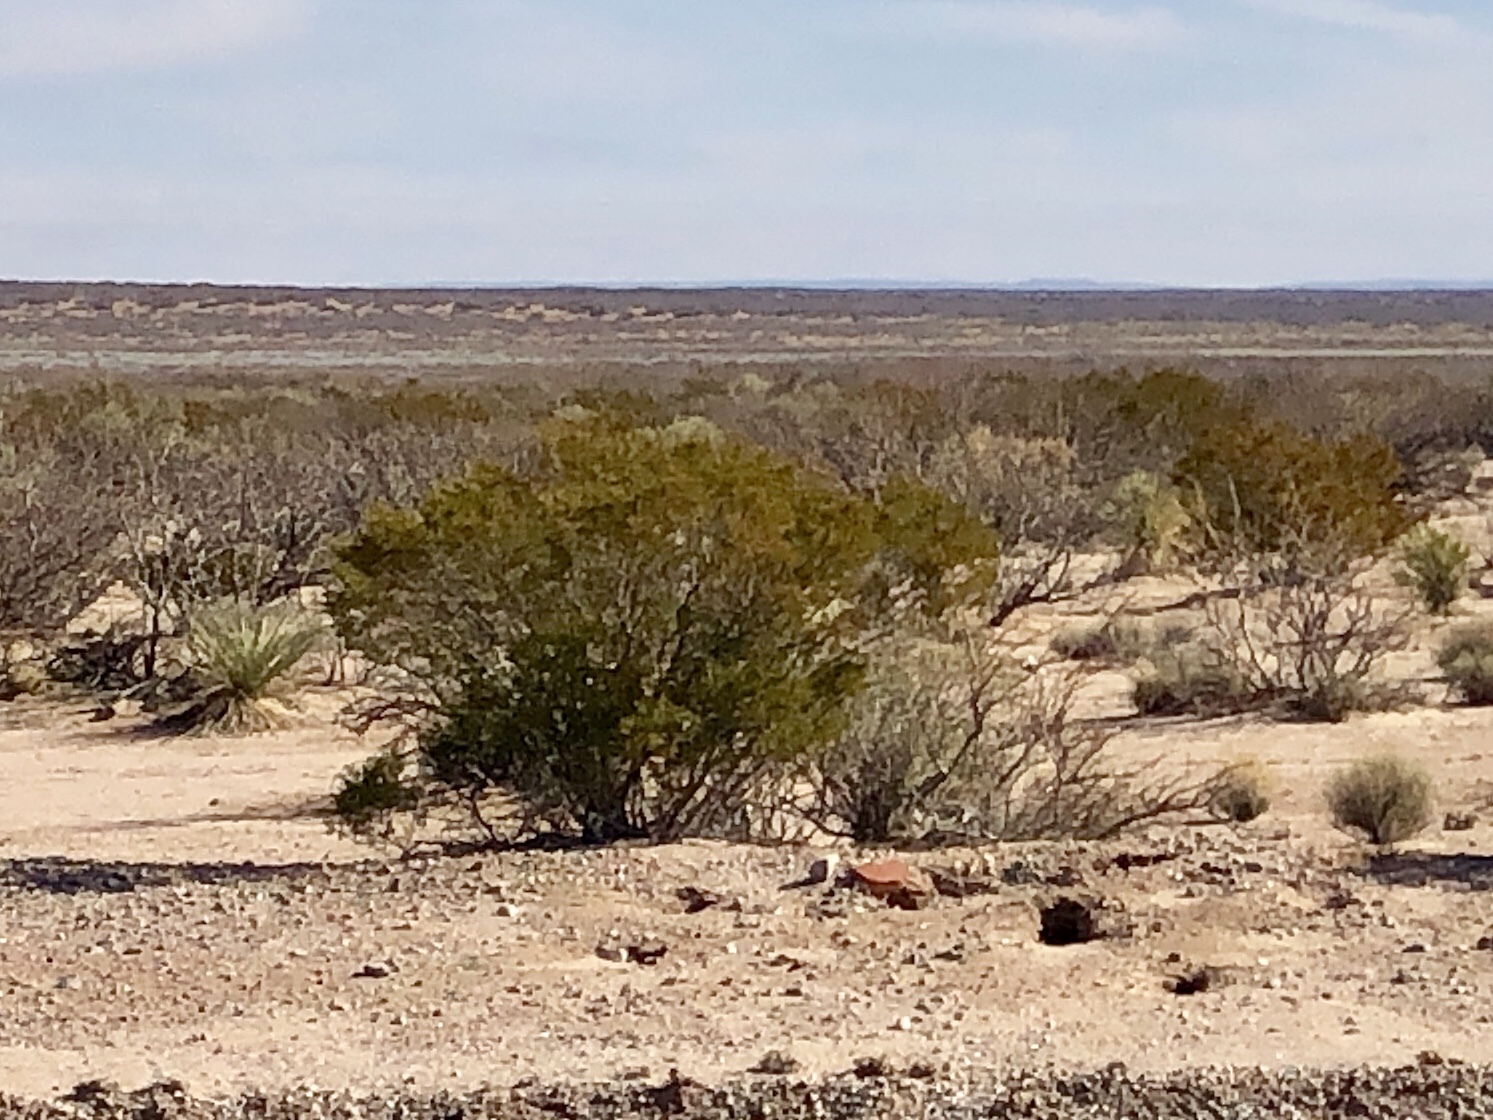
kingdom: Plantae
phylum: Tracheophyta
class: Magnoliopsida
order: Zygophyllales
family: Zygophyllaceae
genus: Larrea
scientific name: Larrea tridentata
